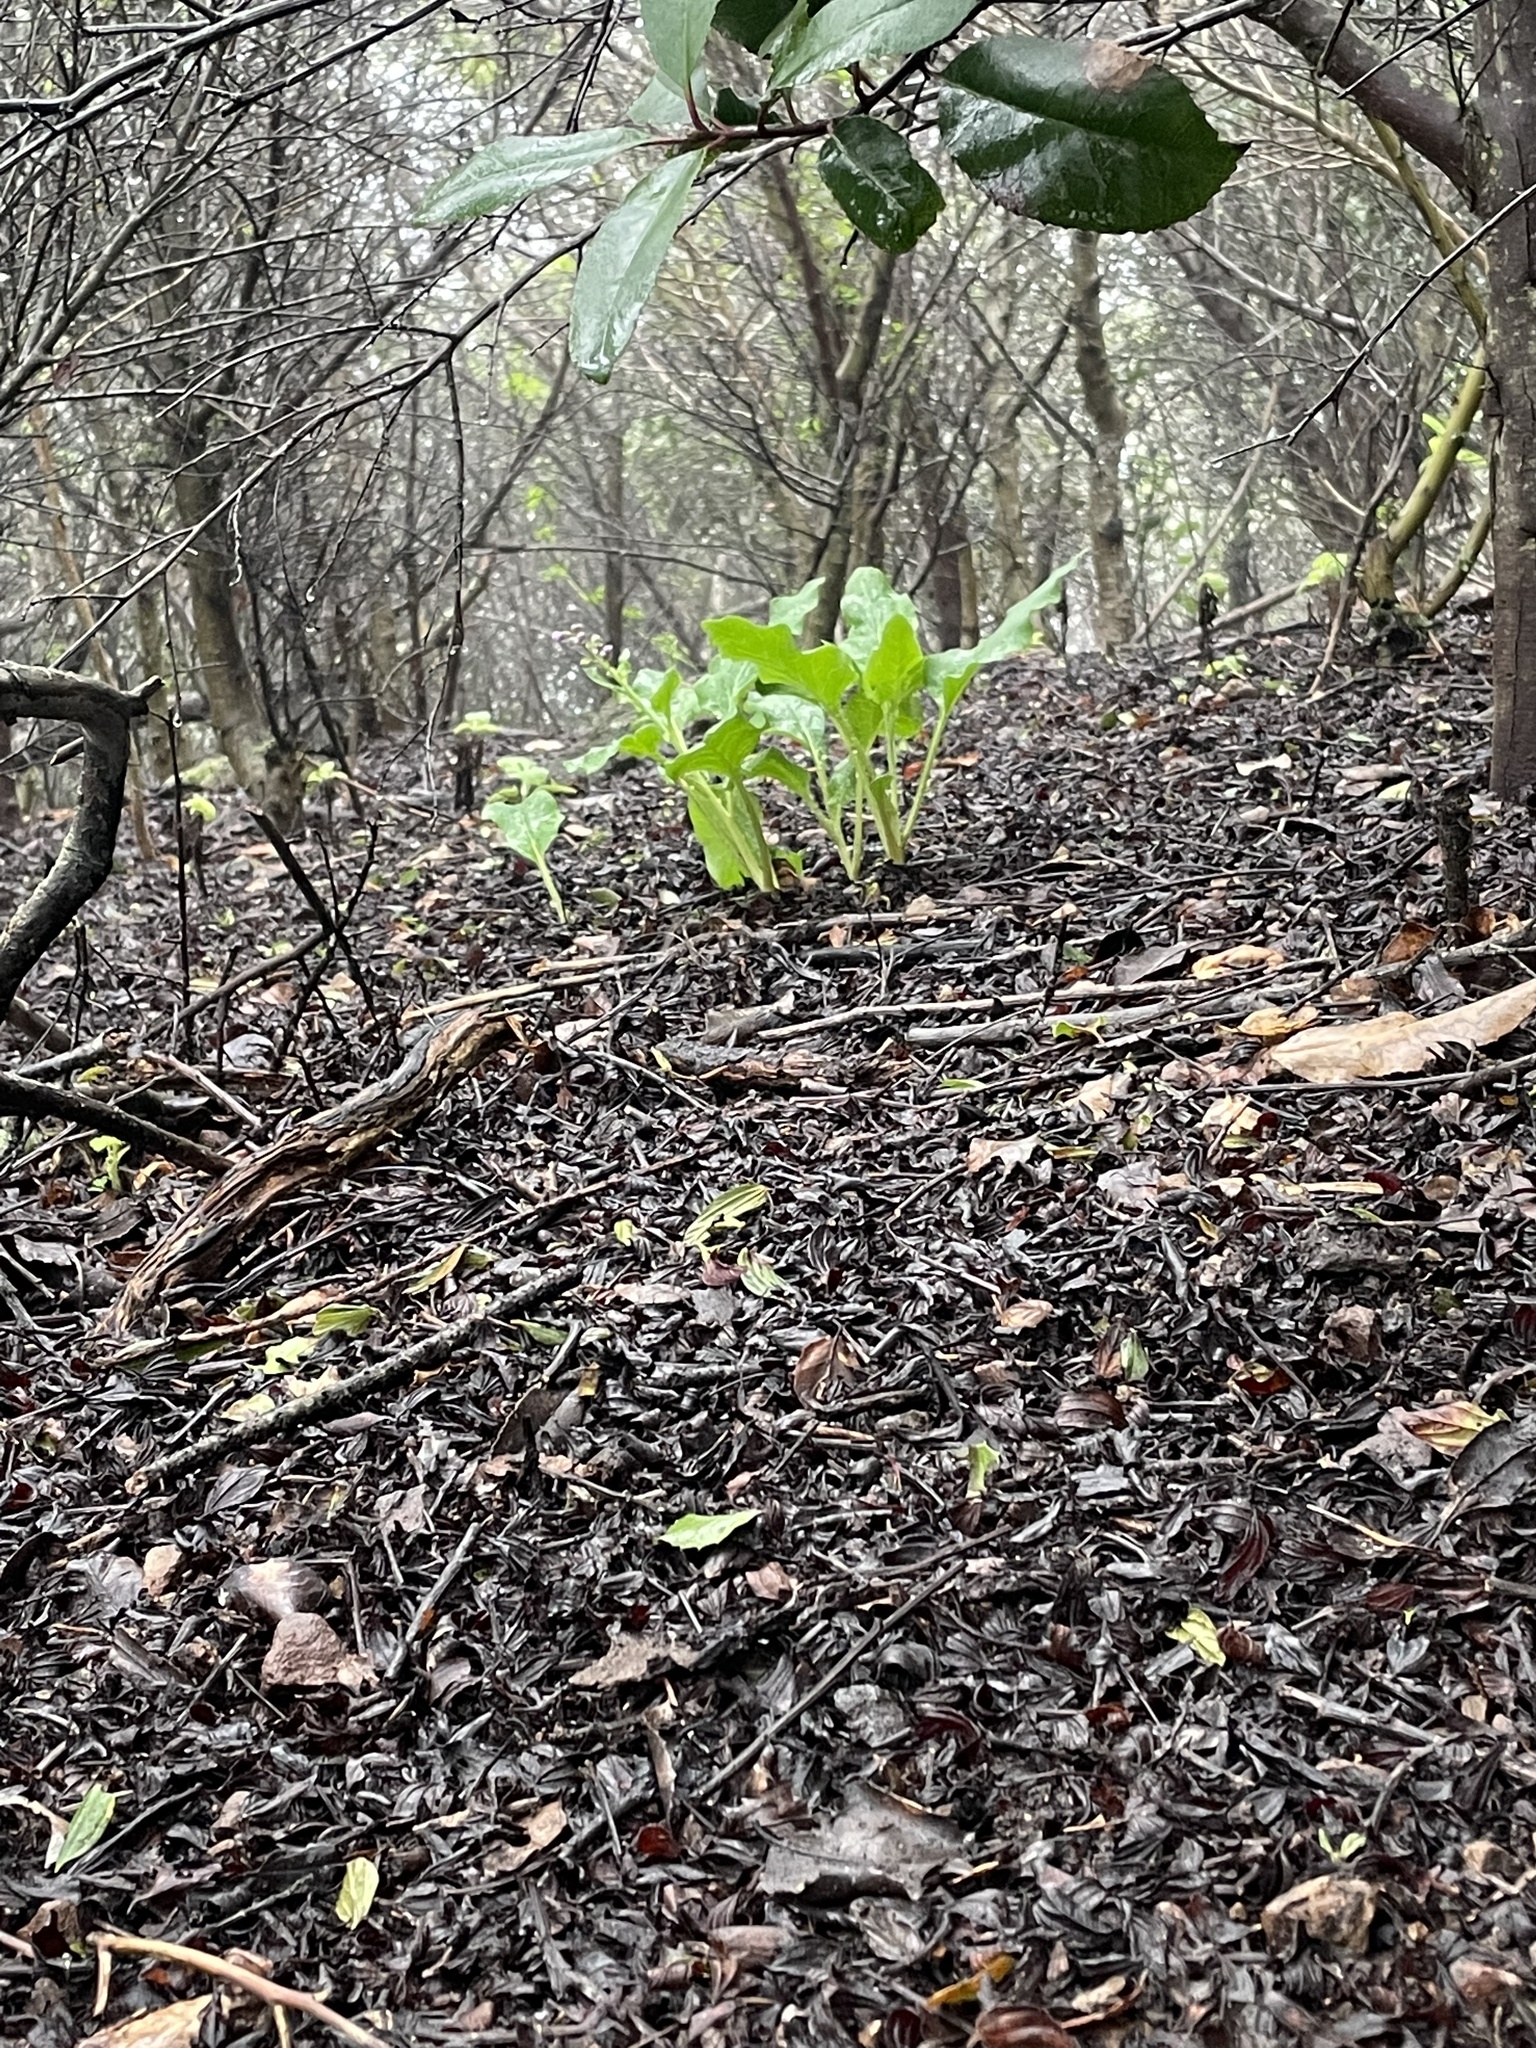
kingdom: Plantae
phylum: Tracheophyta
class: Magnoliopsida
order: Boraginales
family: Boraginaceae
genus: Adelinia
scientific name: Adelinia grande
